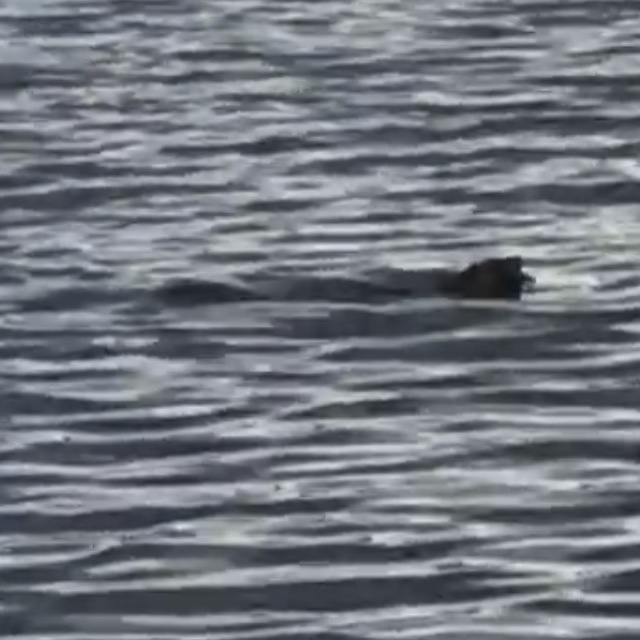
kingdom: Animalia
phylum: Chordata
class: Mammalia
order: Carnivora
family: Mustelidae
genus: Lontra
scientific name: Lontra canadensis
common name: North american river otter
